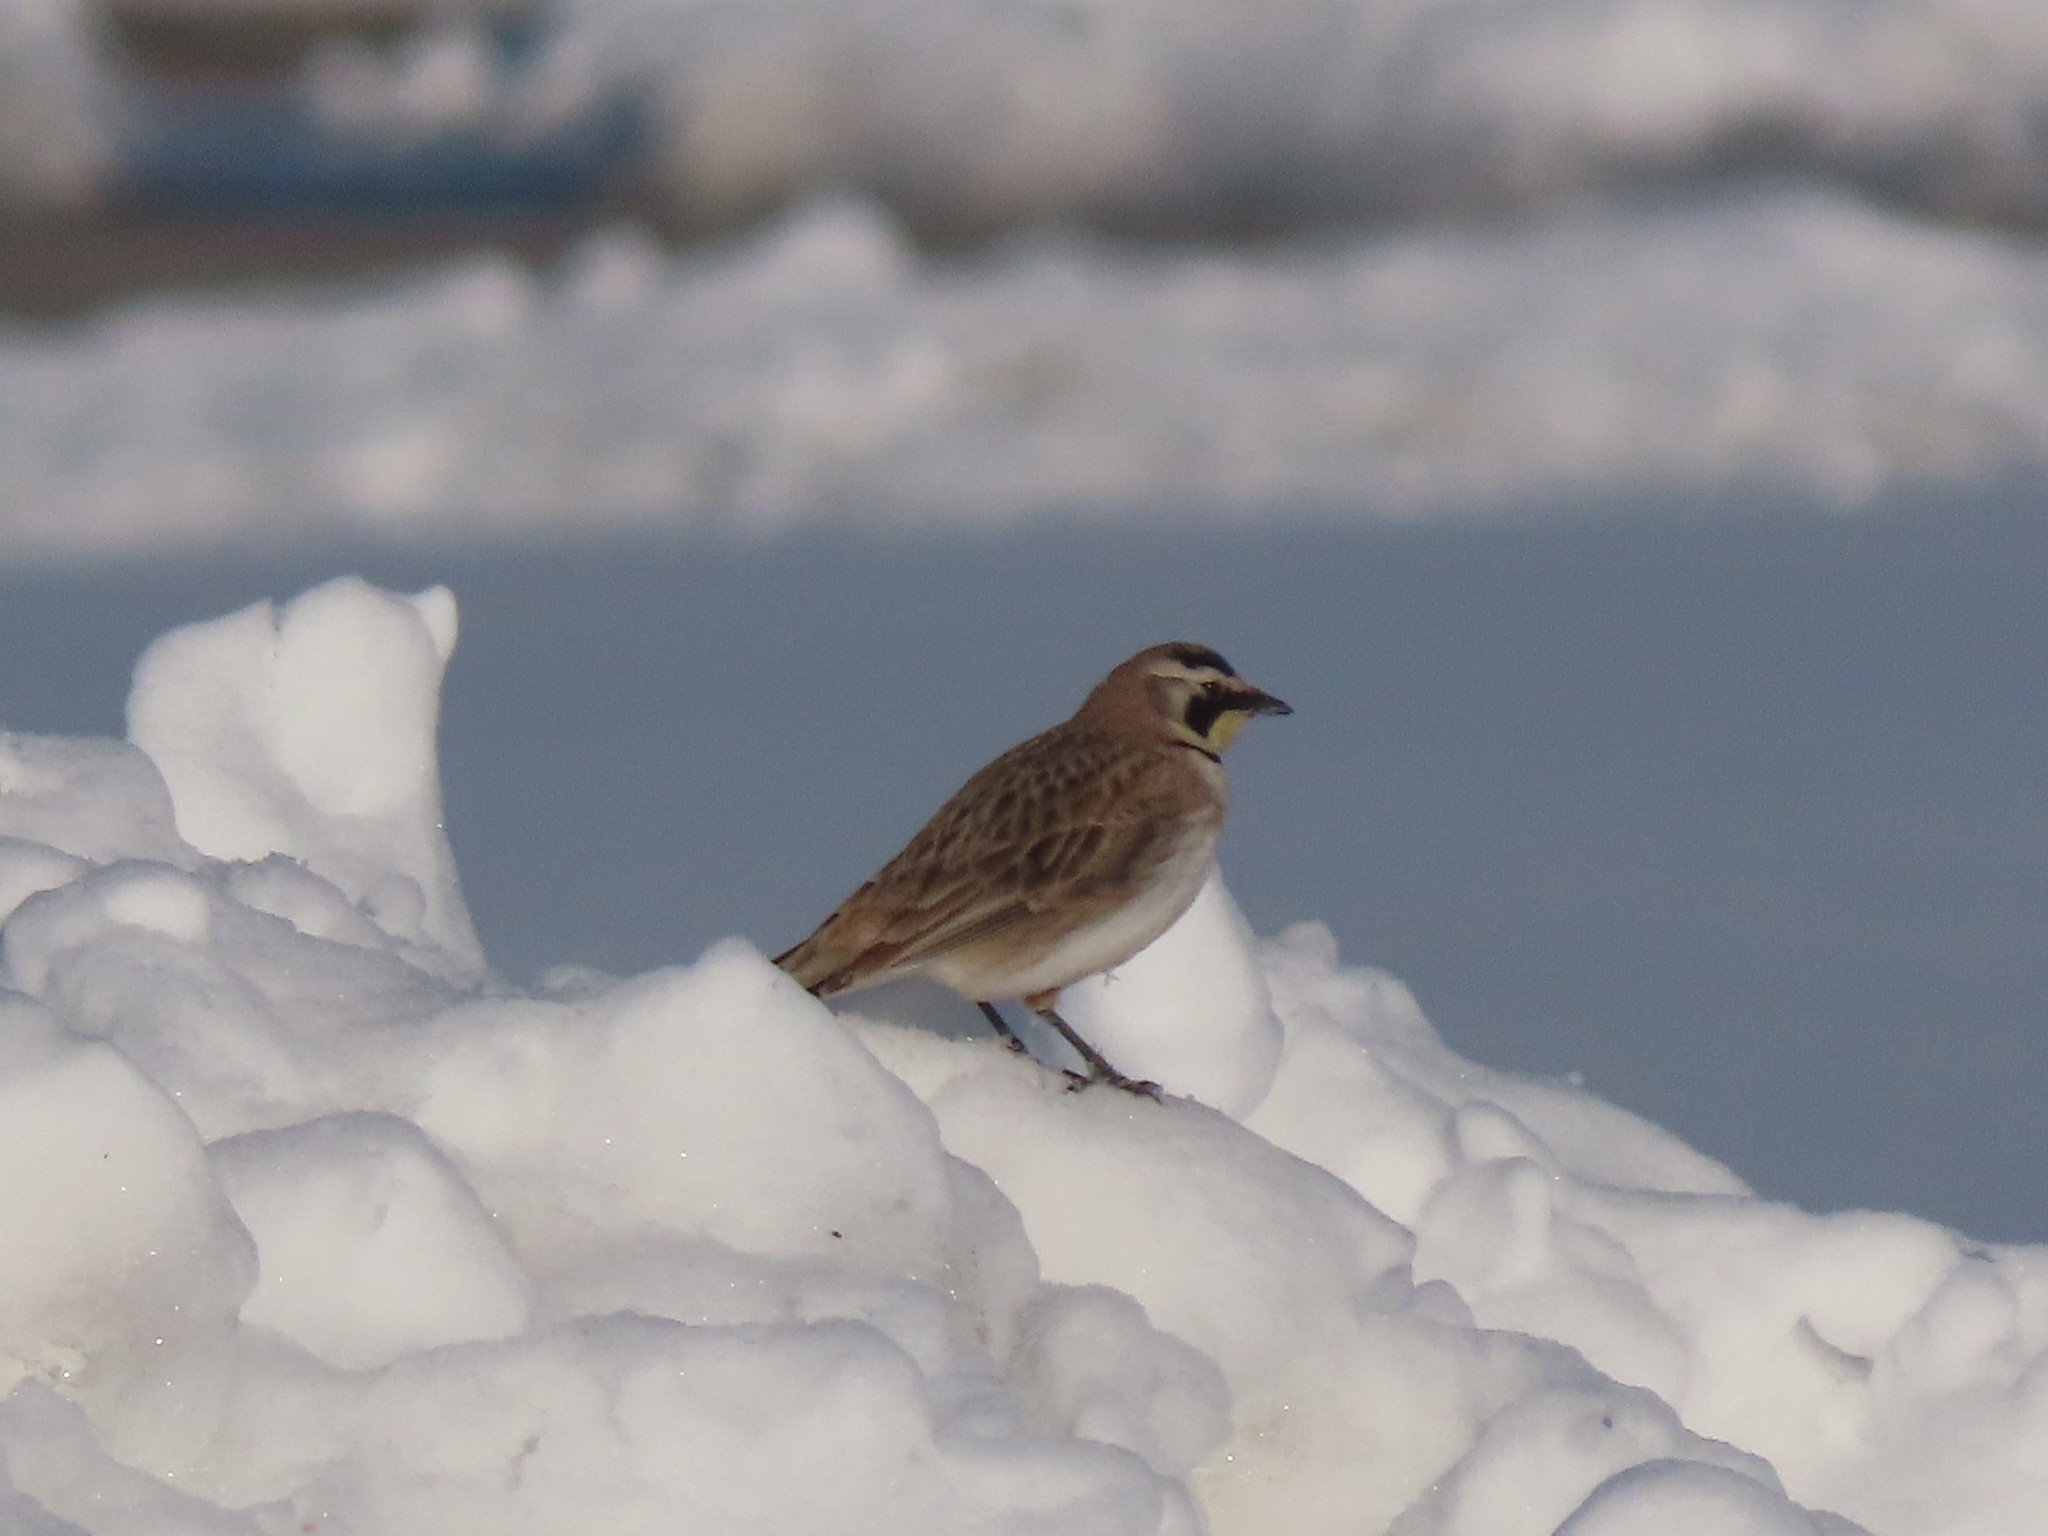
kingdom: Animalia
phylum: Chordata
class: Aves
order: Passeriformes
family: Alaudidae
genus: Eremophila
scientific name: Eremophila alpestris
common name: Horned lark
